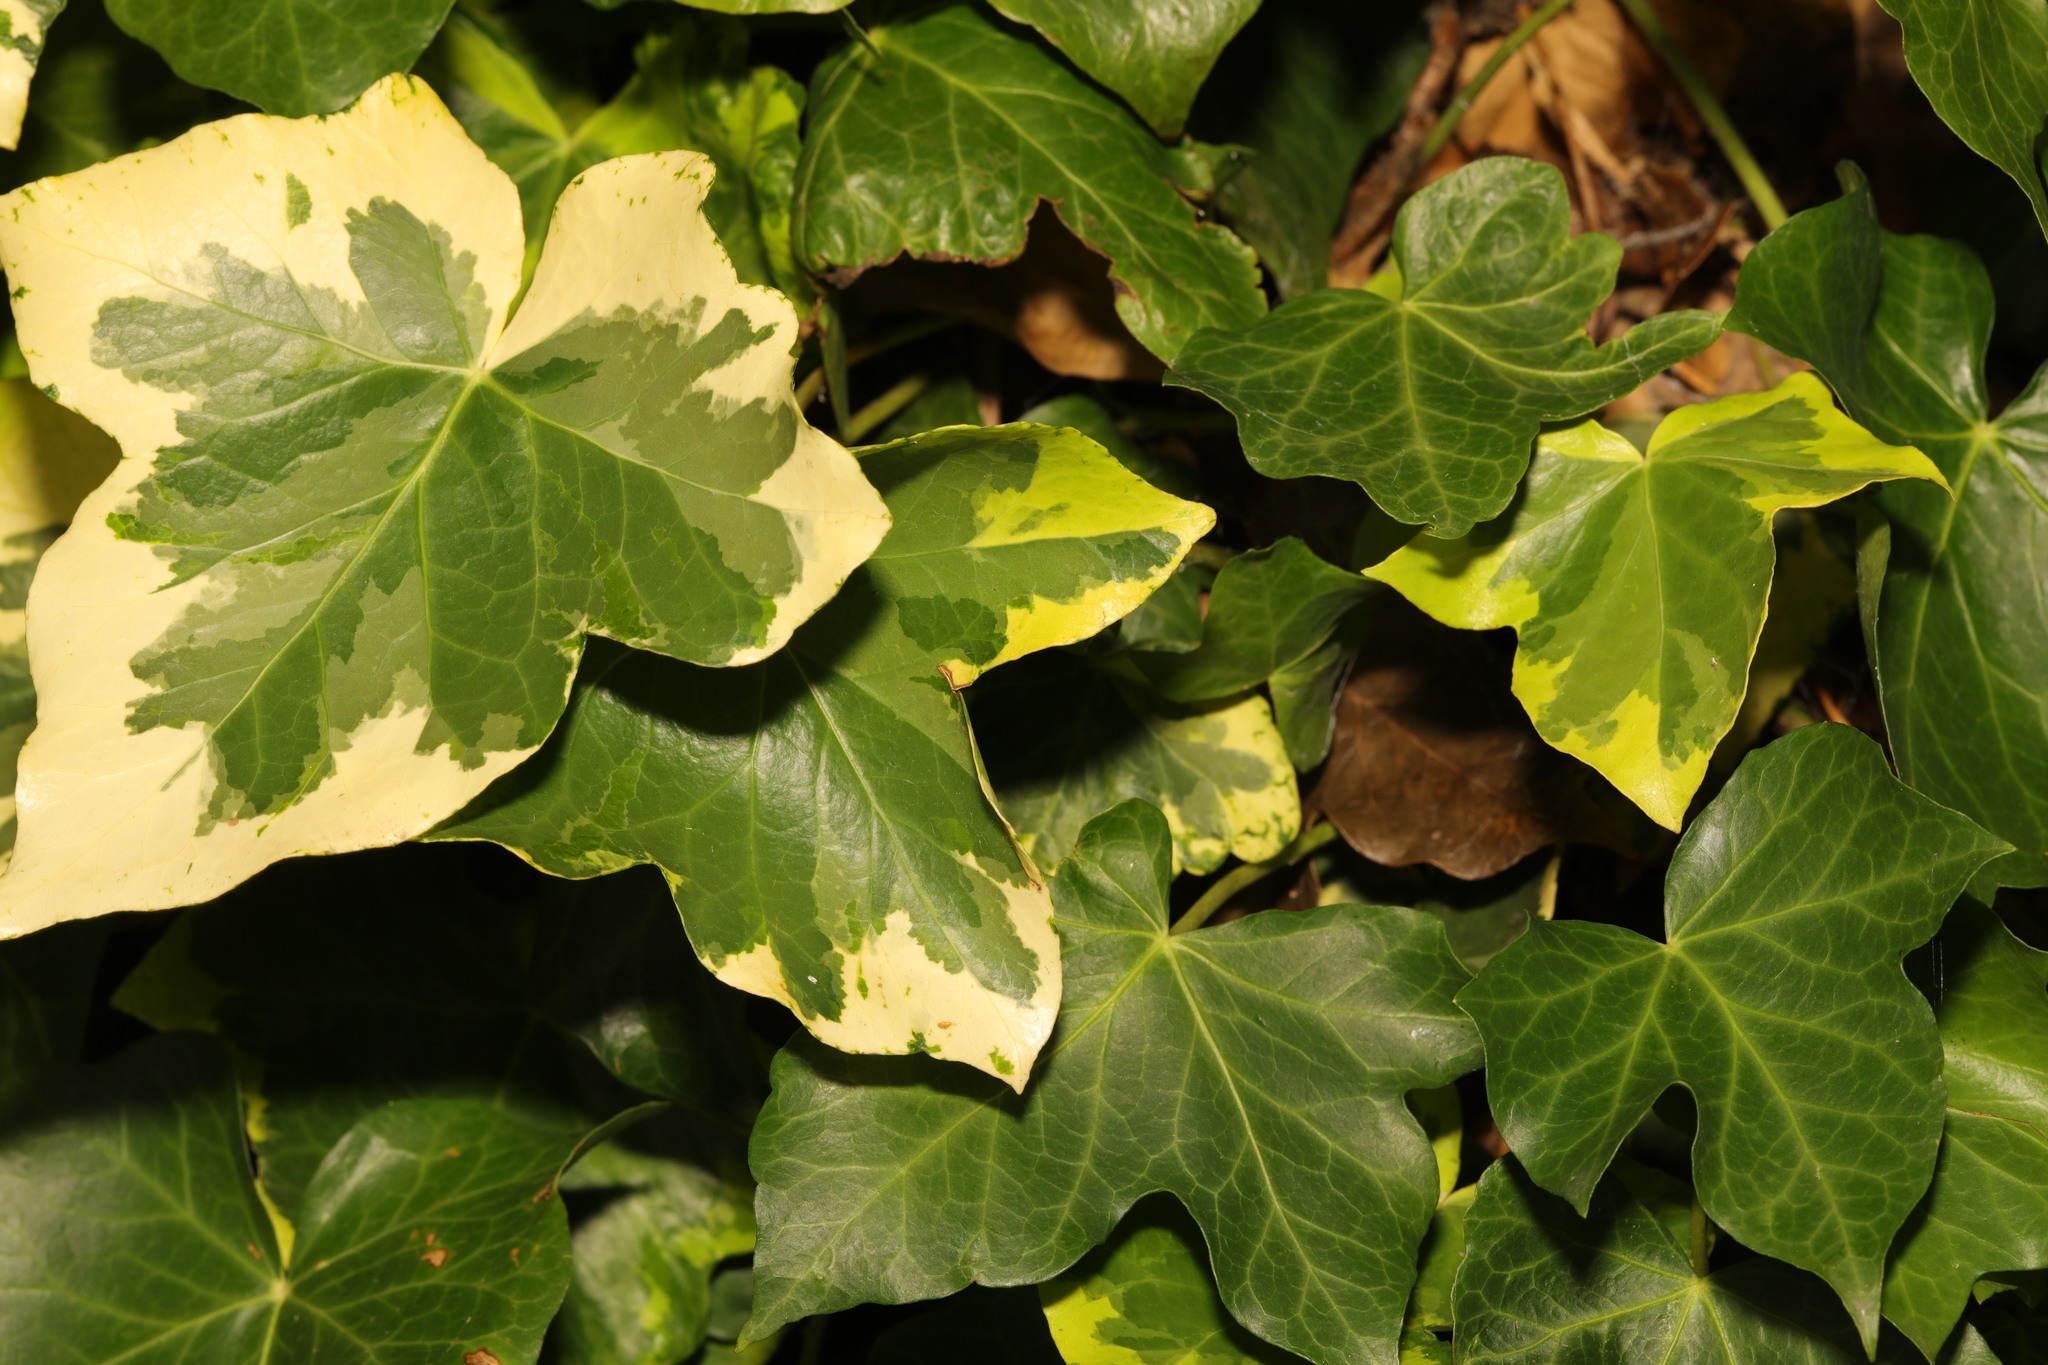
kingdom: Plantae
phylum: Tracheophyta
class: Magnoliopsida
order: Apiales
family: Araliaceae
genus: Hedera
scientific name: Hedera helix
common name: Ivy
